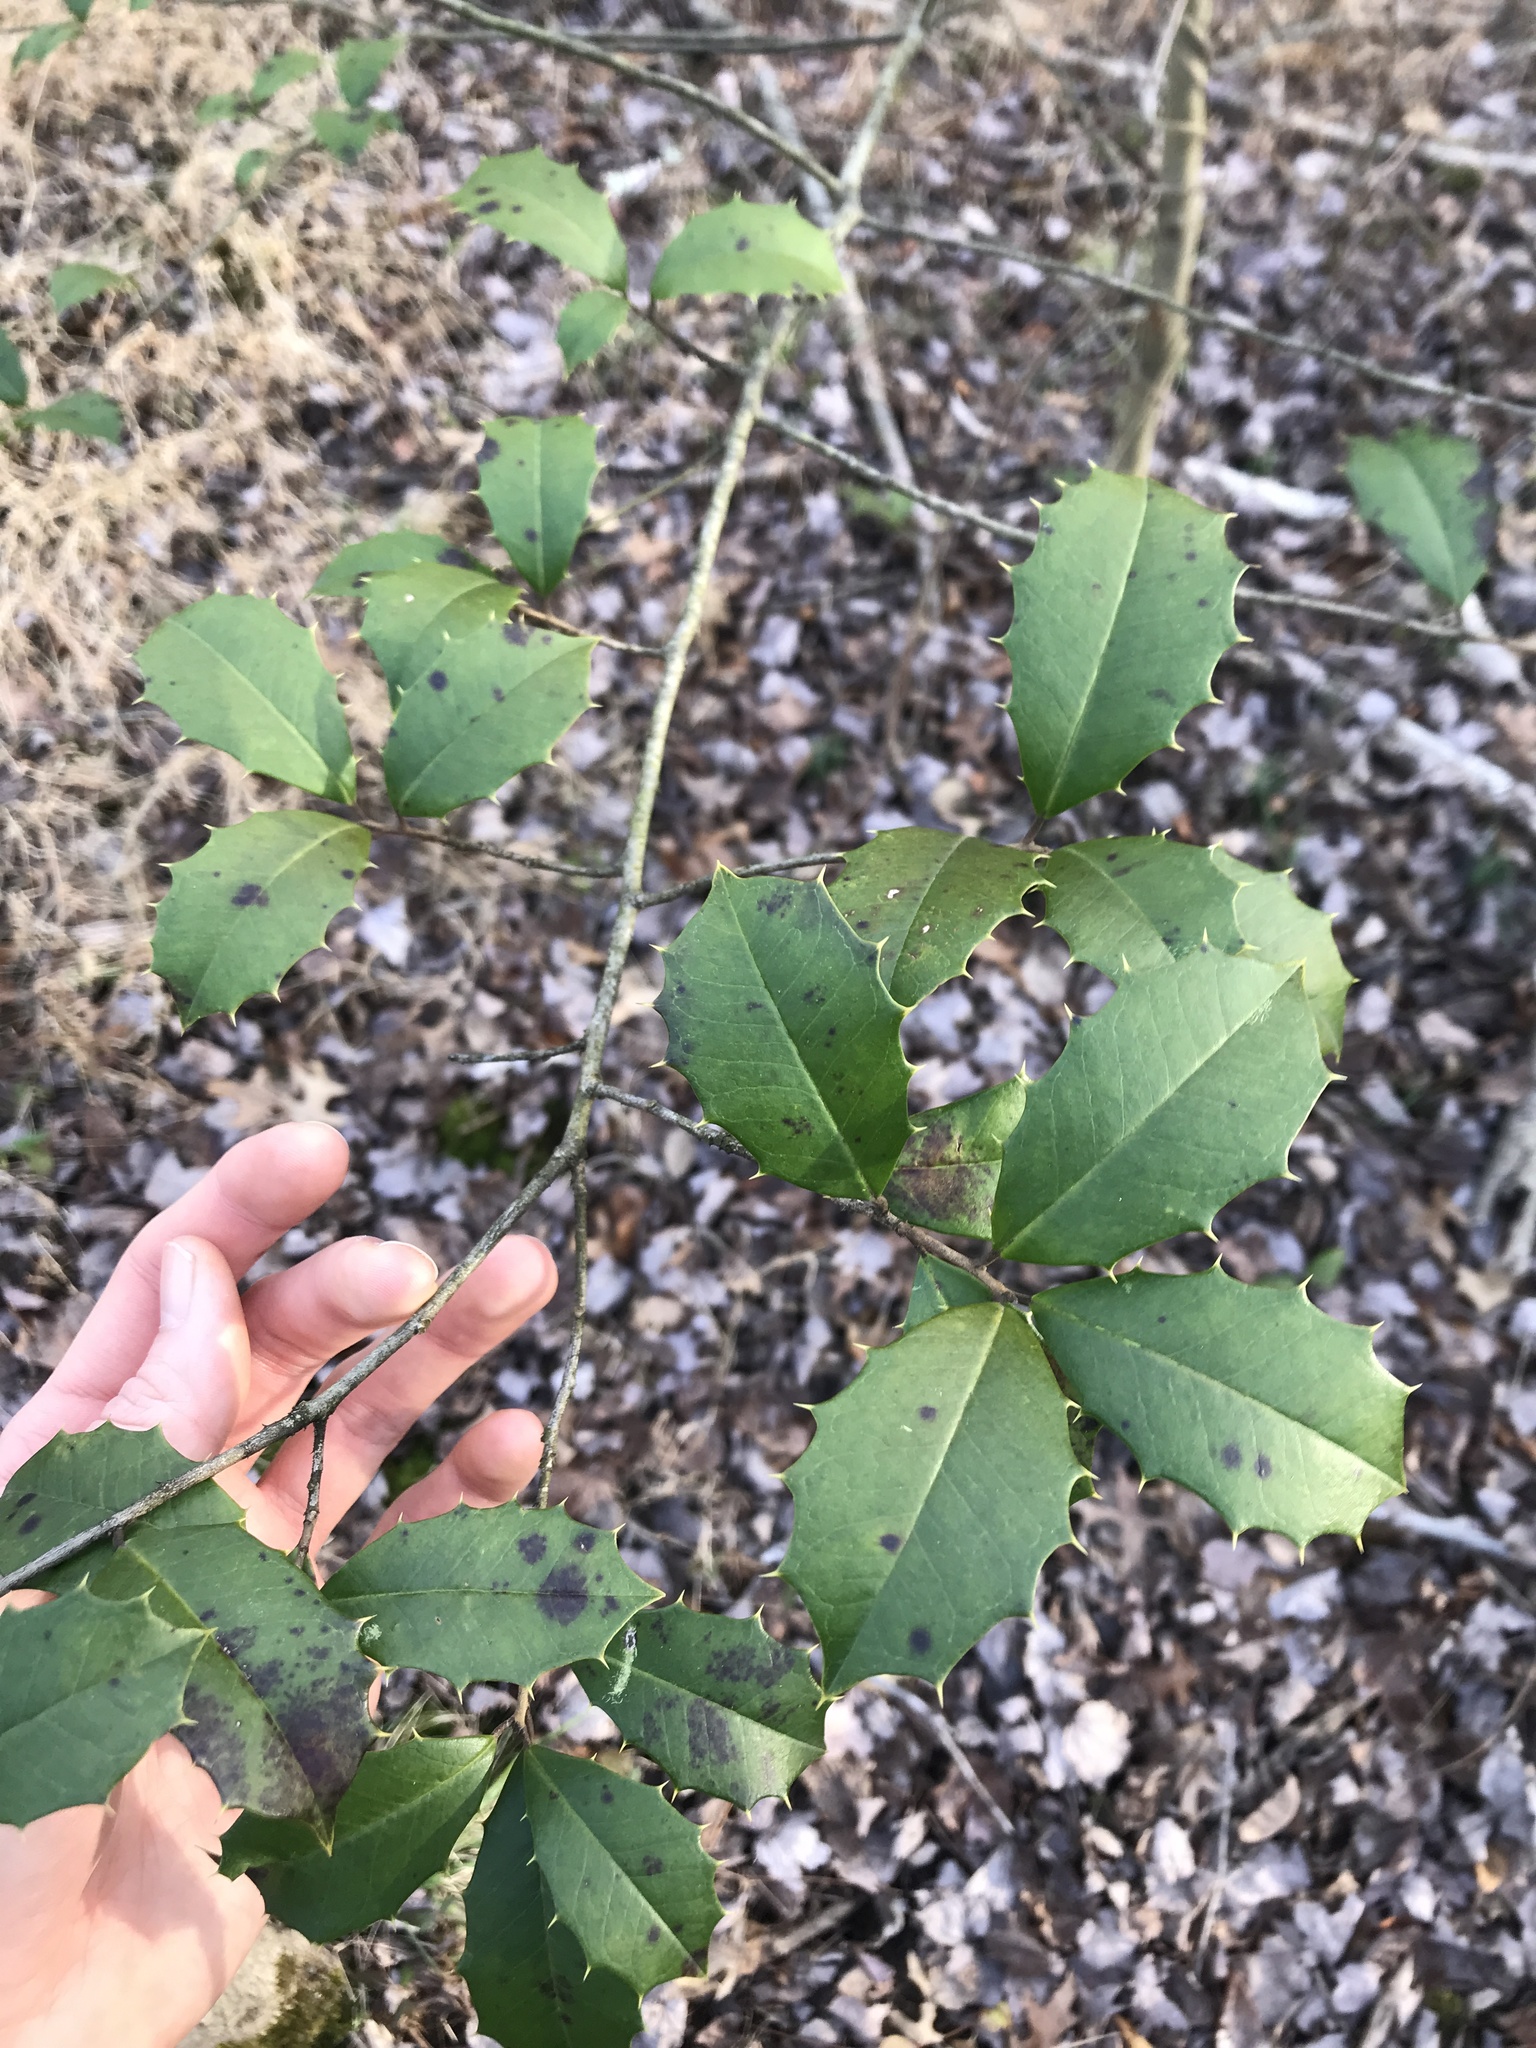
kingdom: Plantae
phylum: Tracheophyta
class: Magnoliopsida
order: Aquifoliales
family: Aquifoliaceae
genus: Ilex
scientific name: Ilex opaca
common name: American holly
